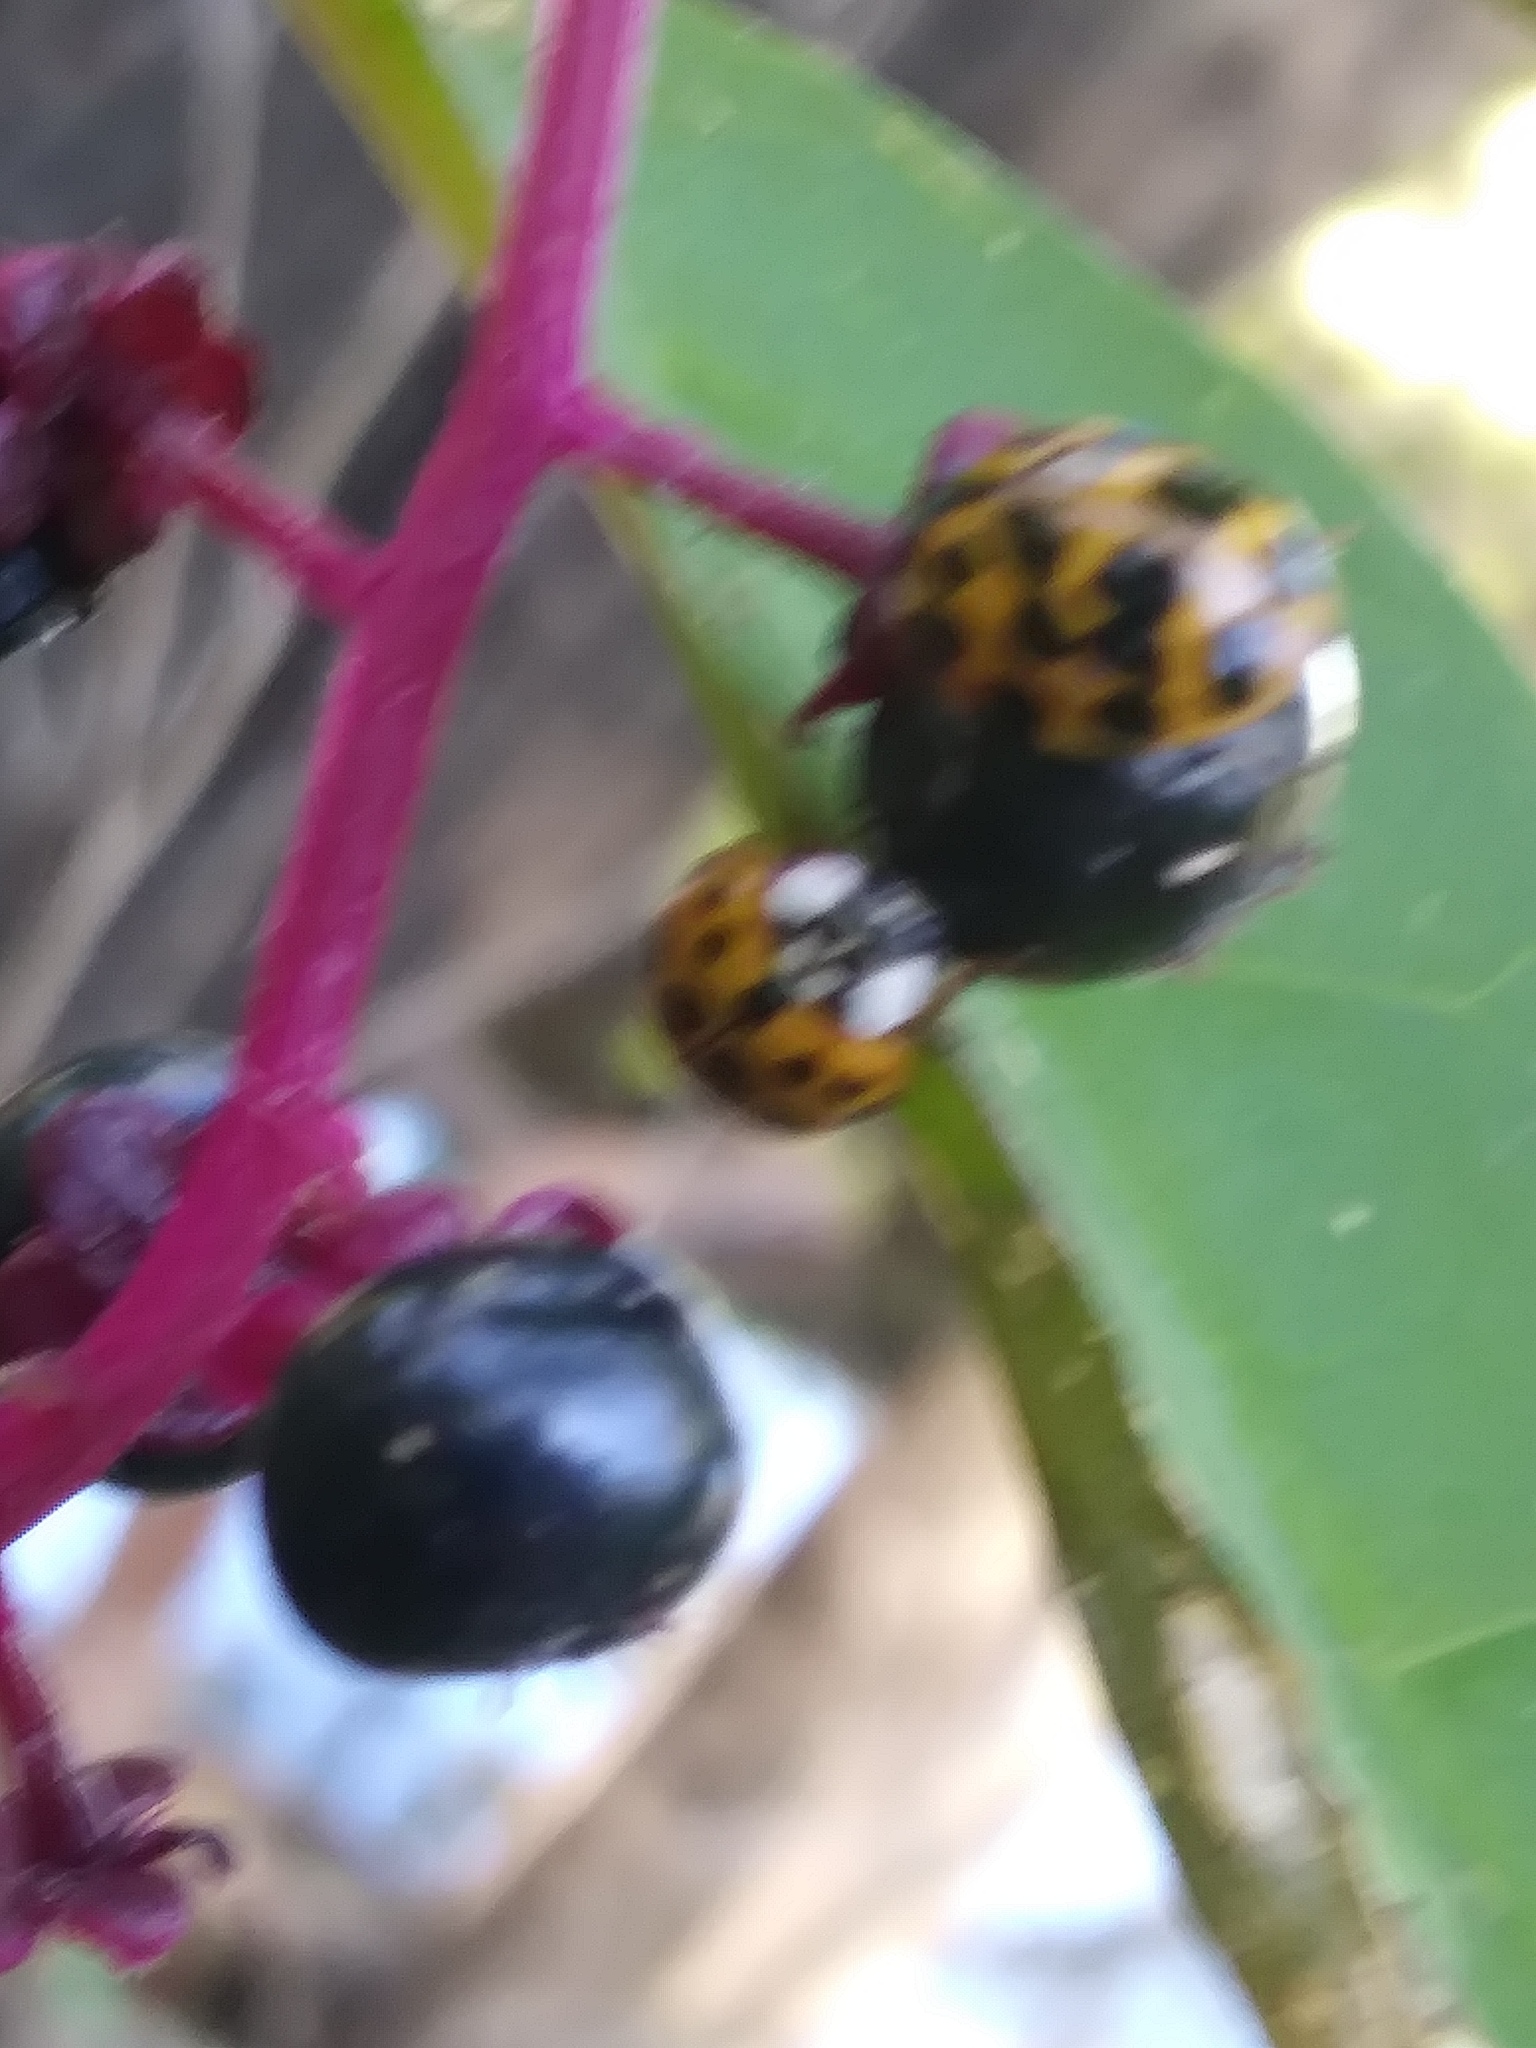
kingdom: Animalia
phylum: Arthropoda
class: Insecta
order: Coleoptera
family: Coccinellidae
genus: Harmonia
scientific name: Harmonia axyridis
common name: Harlequin ladybird
